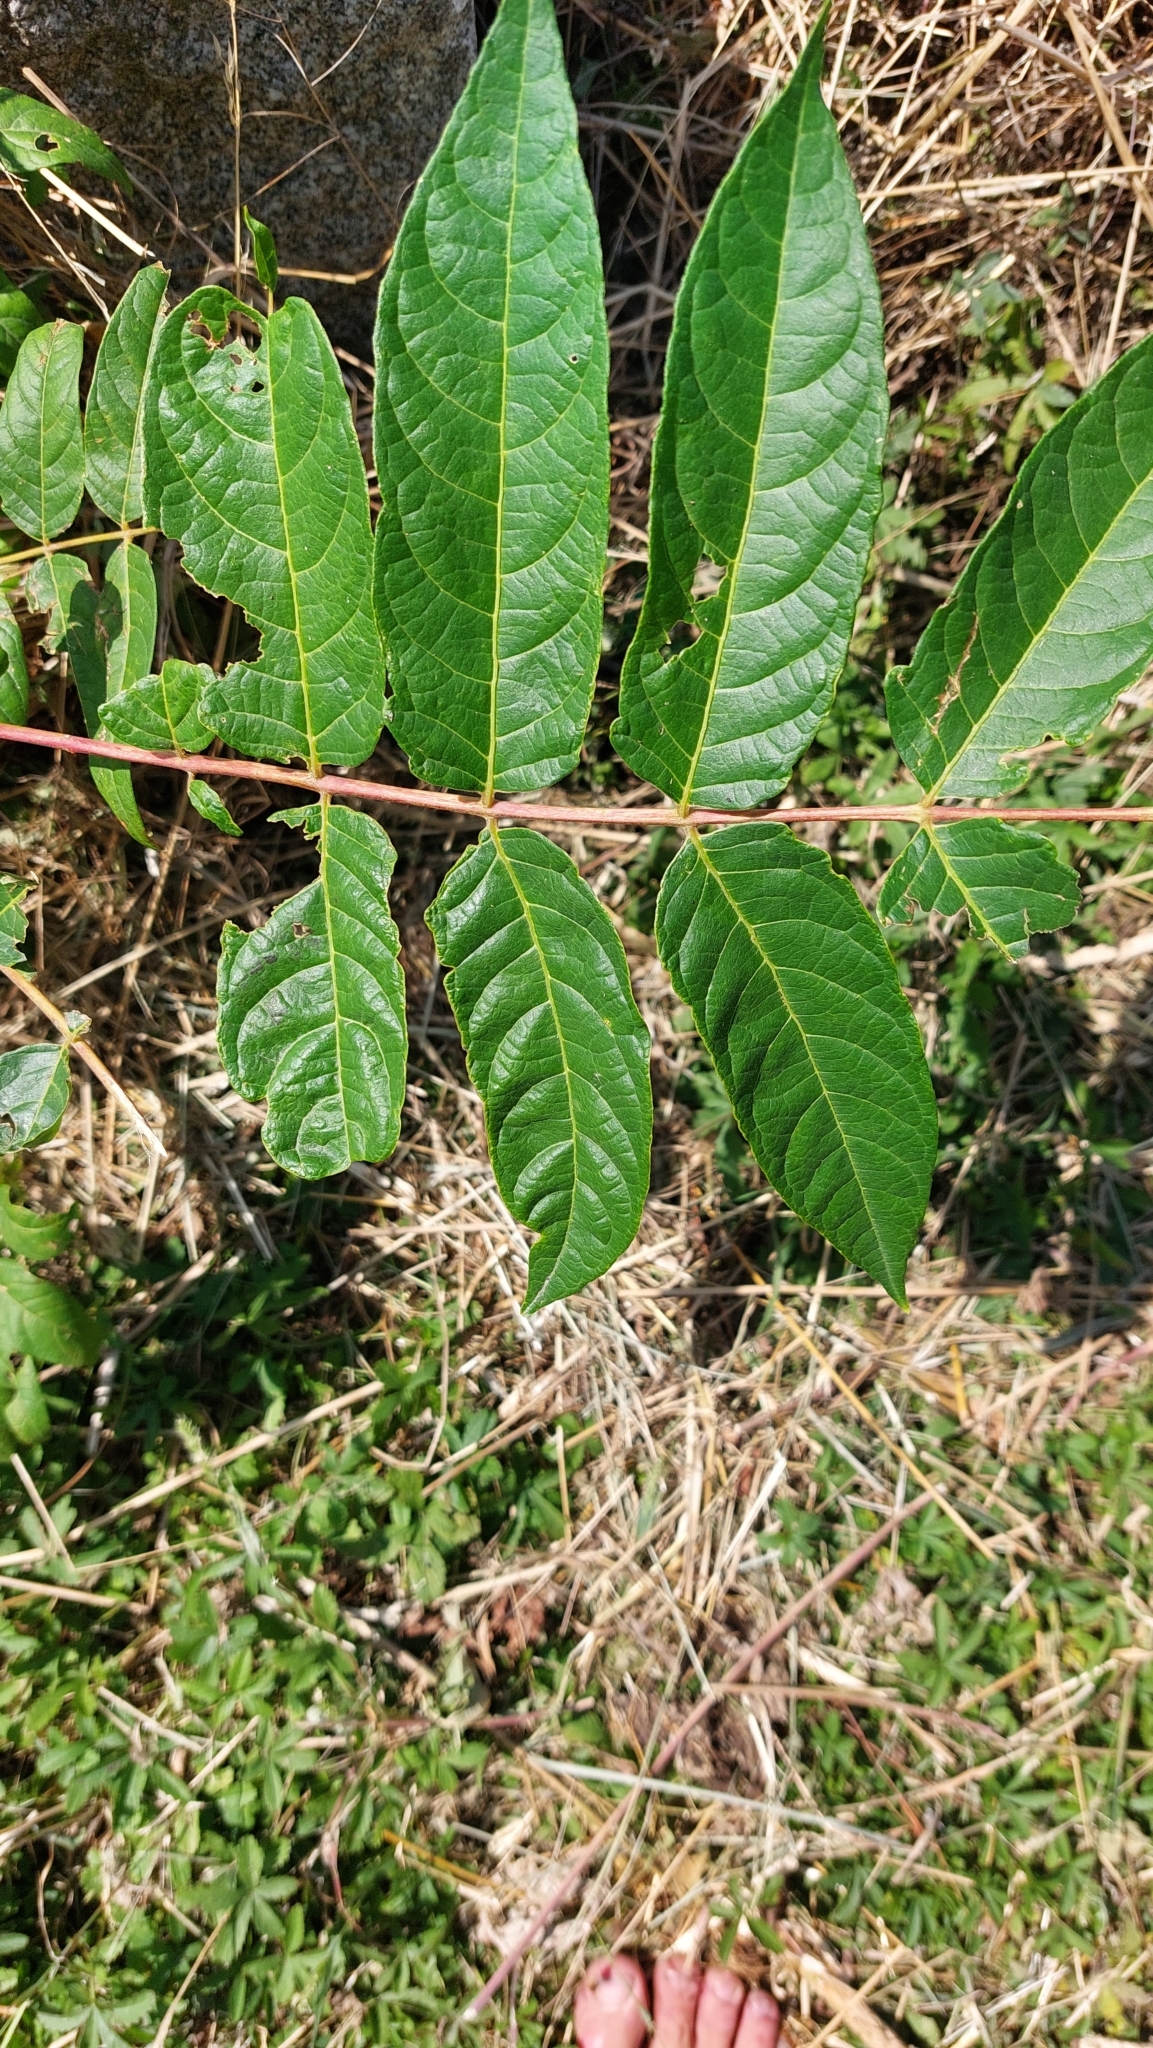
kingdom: Plantae
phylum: Tracheophyta
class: Magnoliopsida
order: Sapindales
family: Simaroubaceae
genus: Ailanthus
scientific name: Ailanthus altissima
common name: Tree-of-heaven
